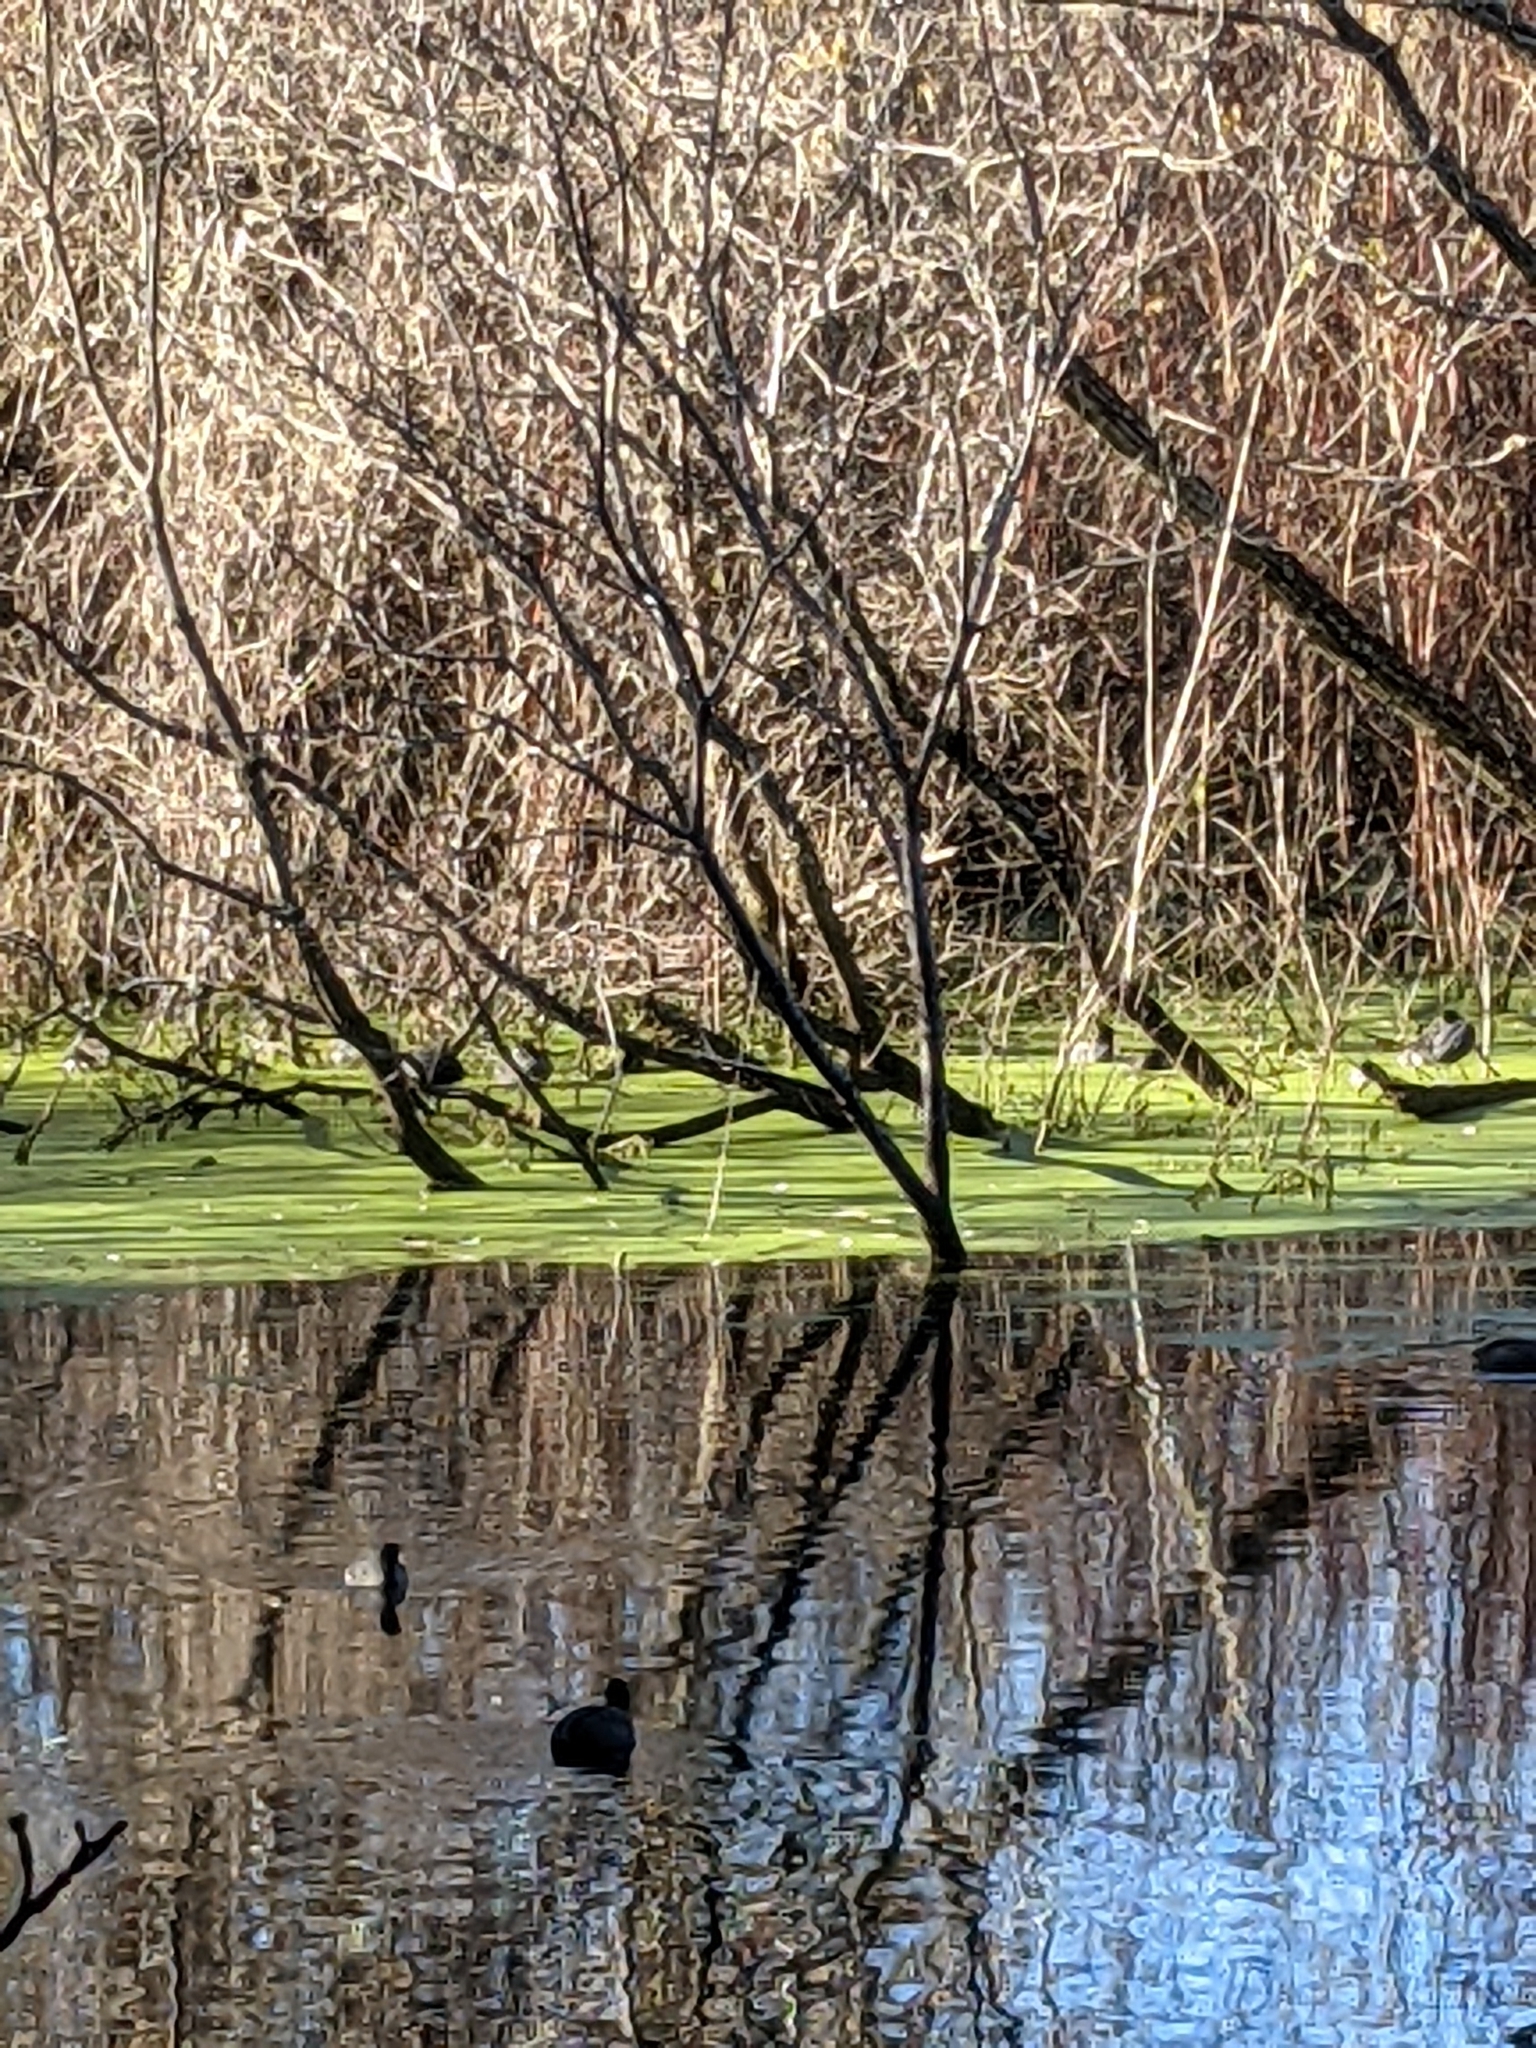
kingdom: Animalia
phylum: Chordata
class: Aves
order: Gruiformes
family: Rallidae
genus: Fulica
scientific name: Fulica americana
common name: American coot
